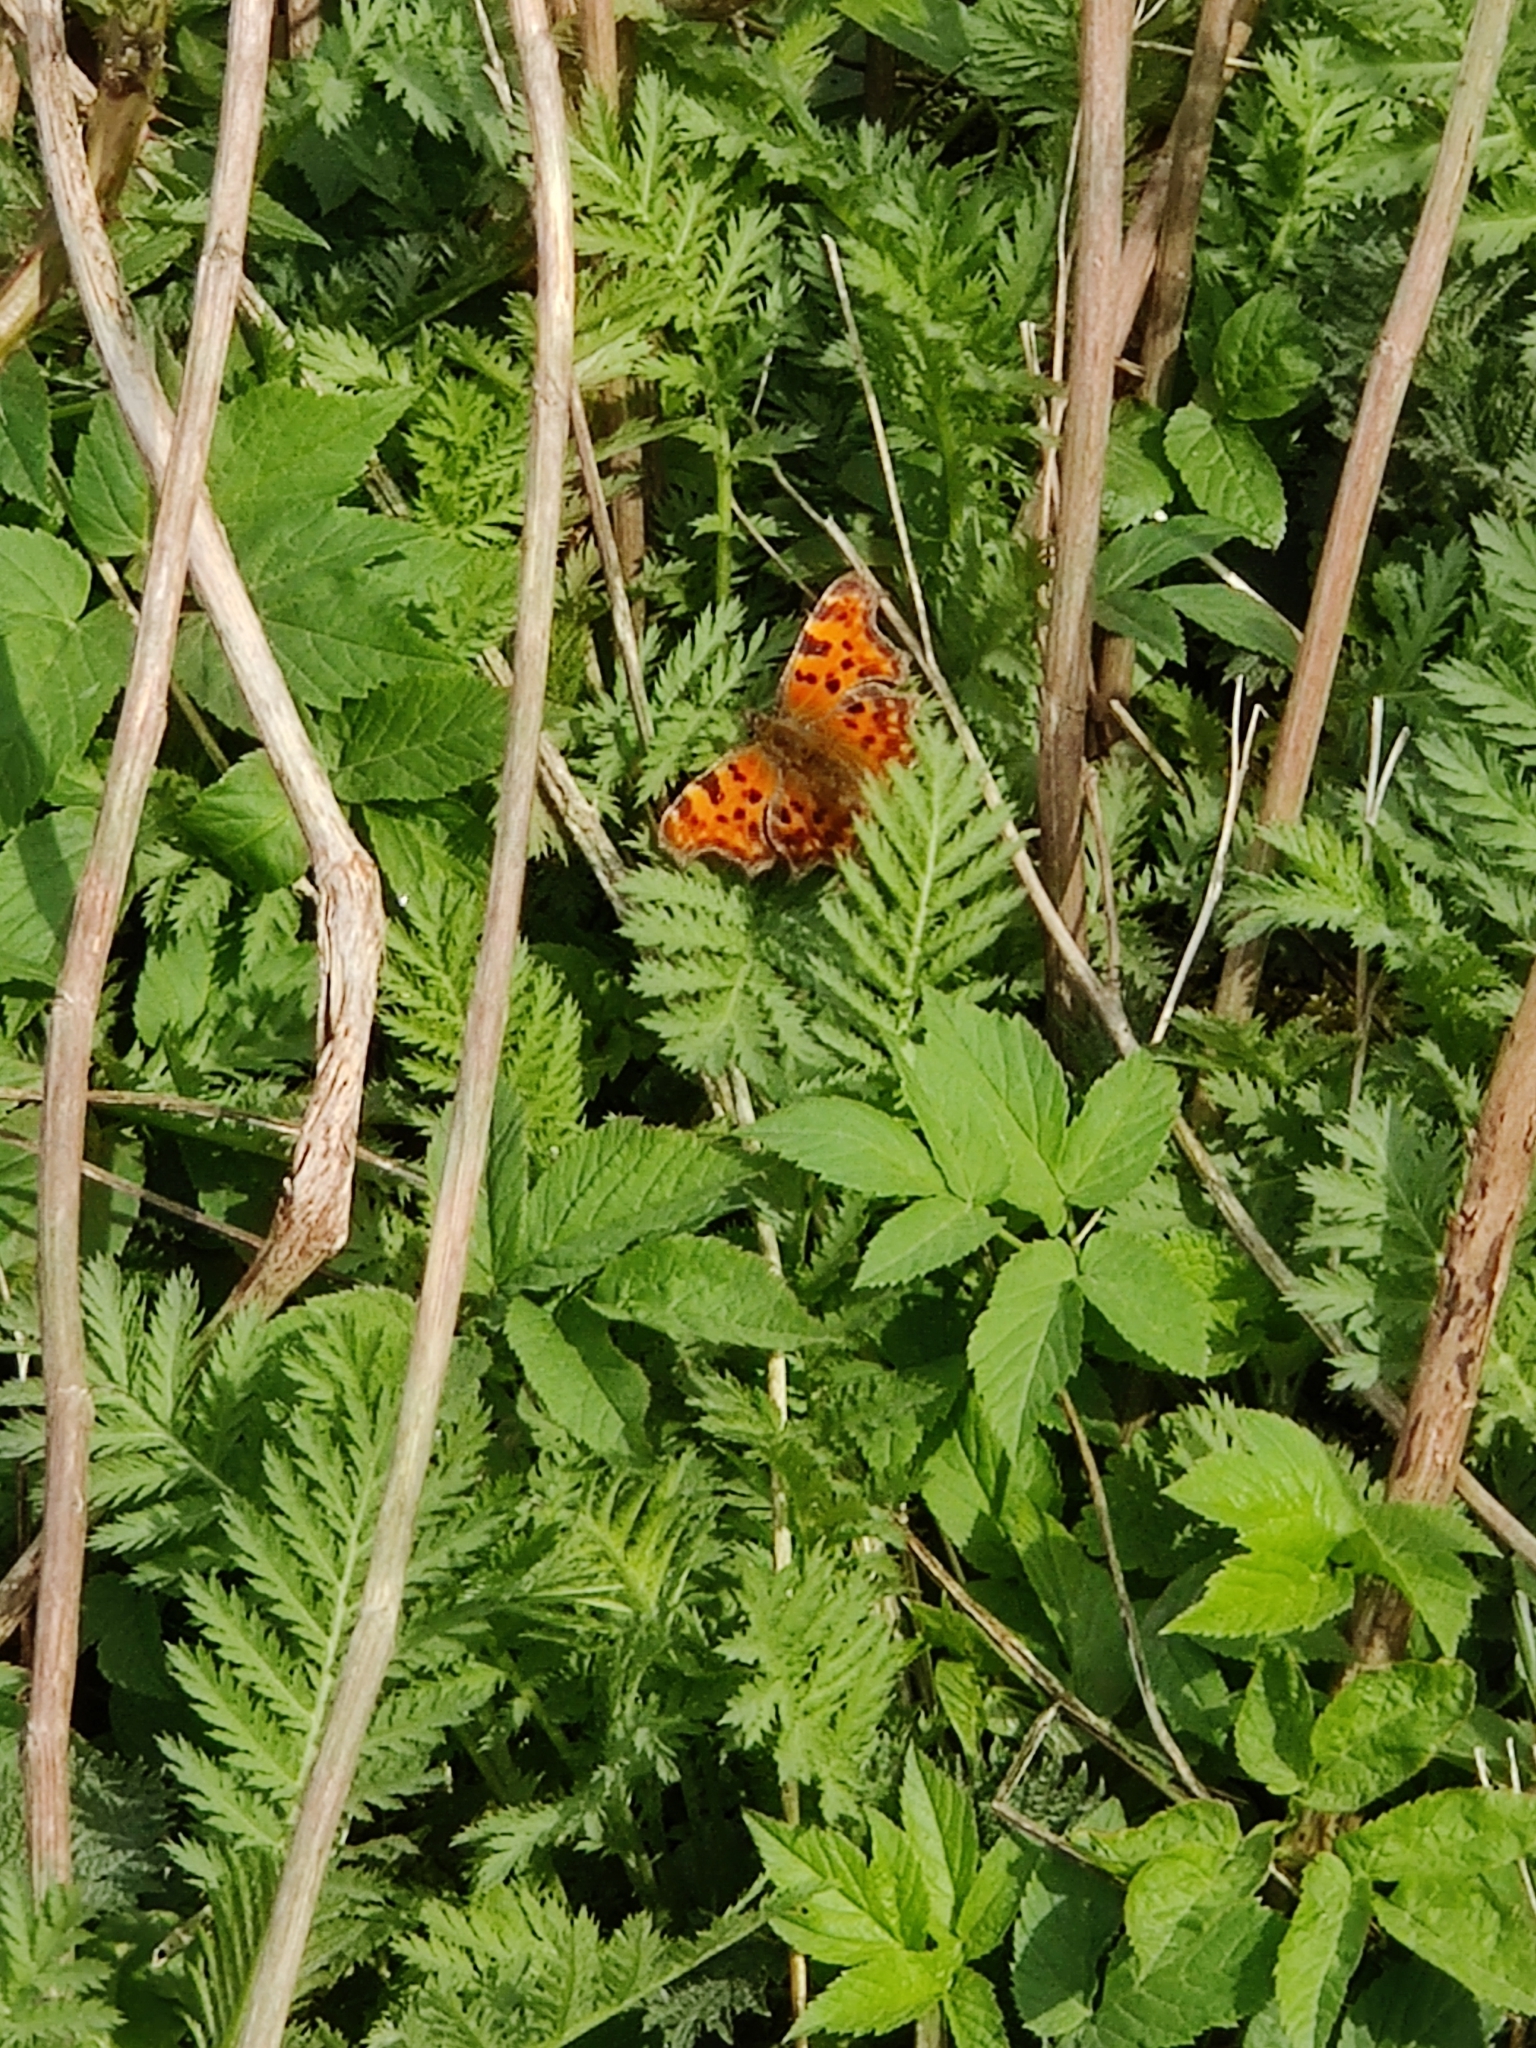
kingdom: Animalia
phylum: Arthropoda
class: Insecta
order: Lepidoptera
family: Nymphalidae
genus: Polygonia
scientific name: Polygonia c-album
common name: Comma
